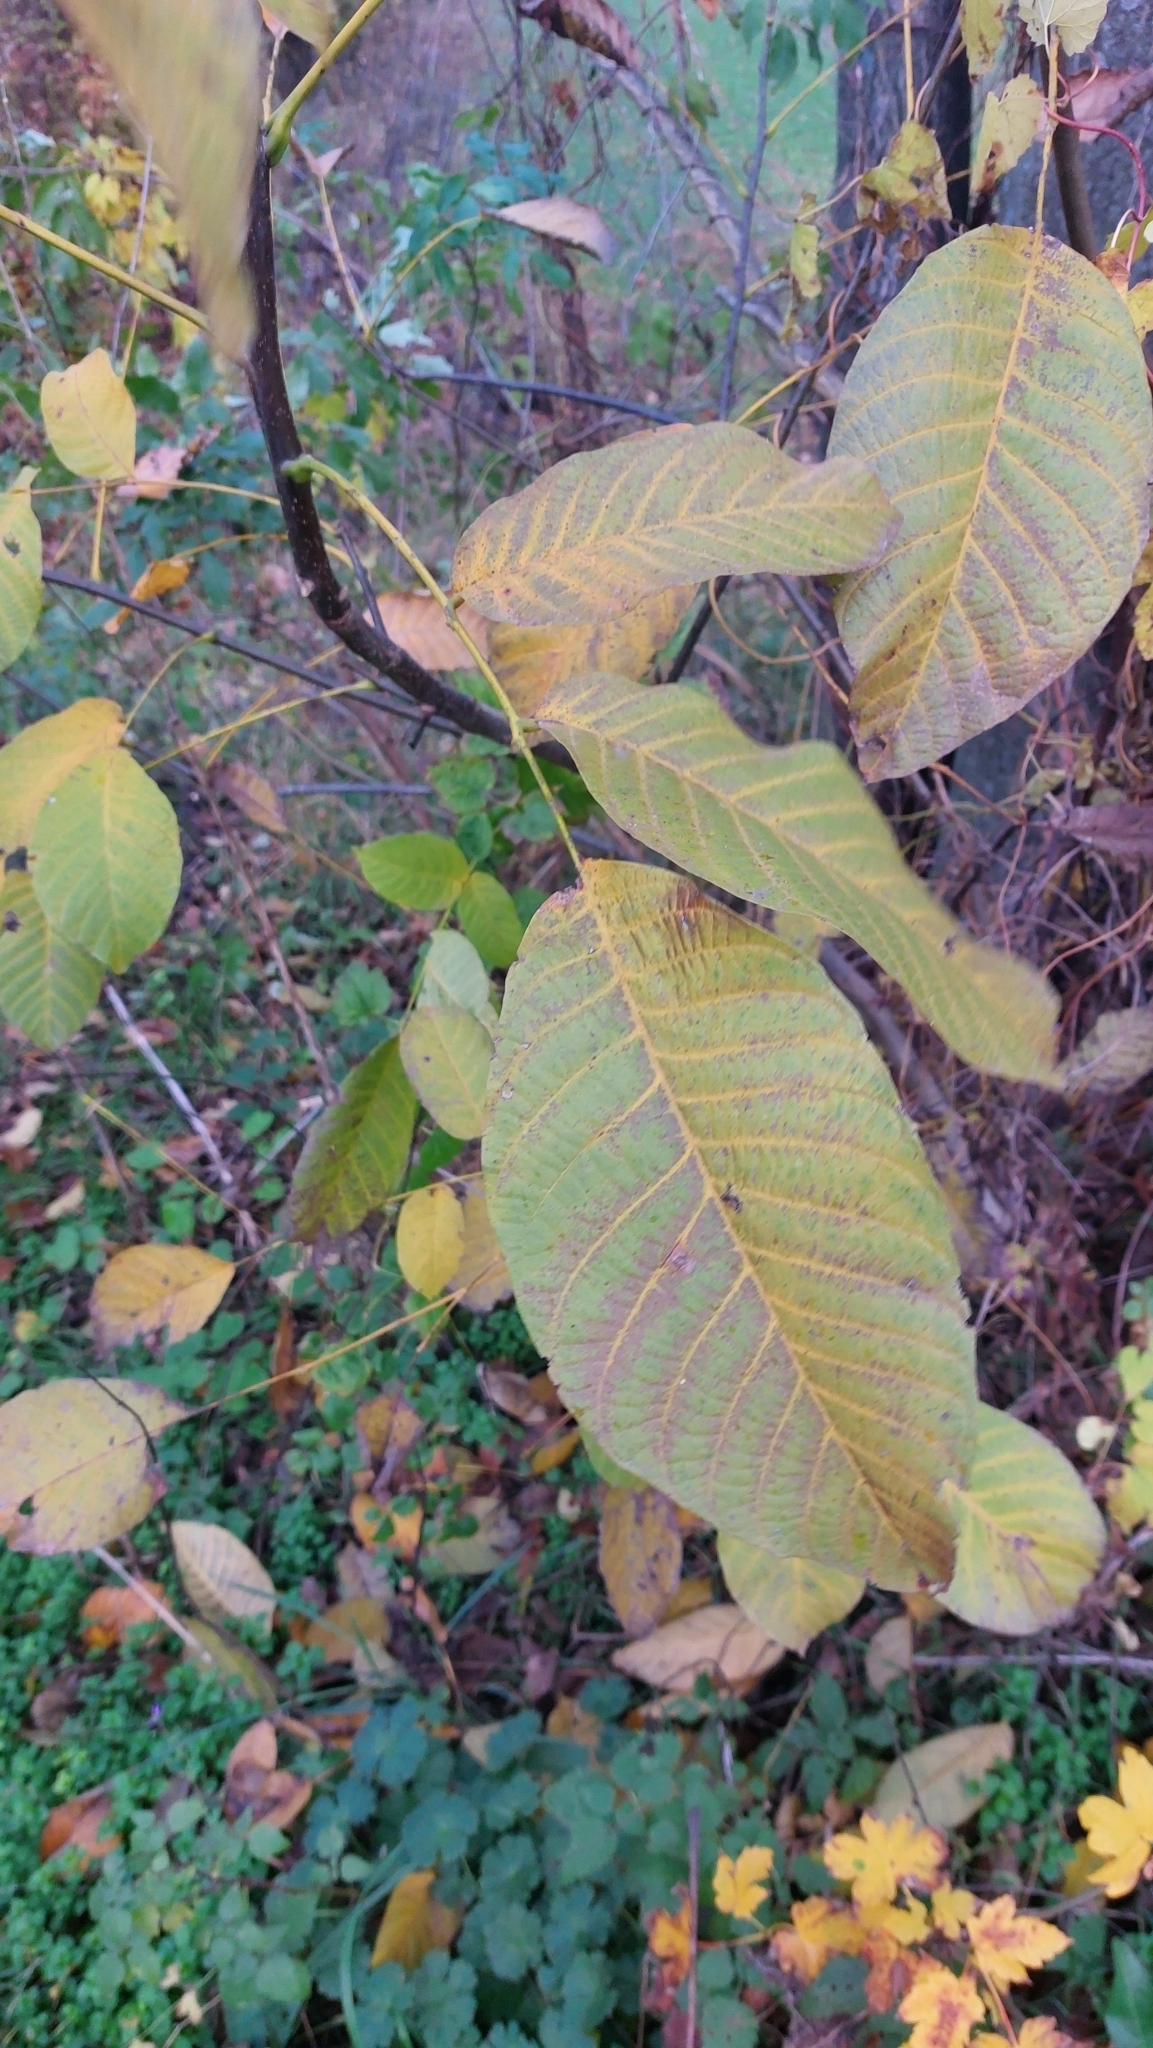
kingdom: Plantae
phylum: Tracheophyta
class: Magnoliopsida
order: Fagales
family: Juglandaceae
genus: Juglans
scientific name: Juglans regia
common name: Walnut
